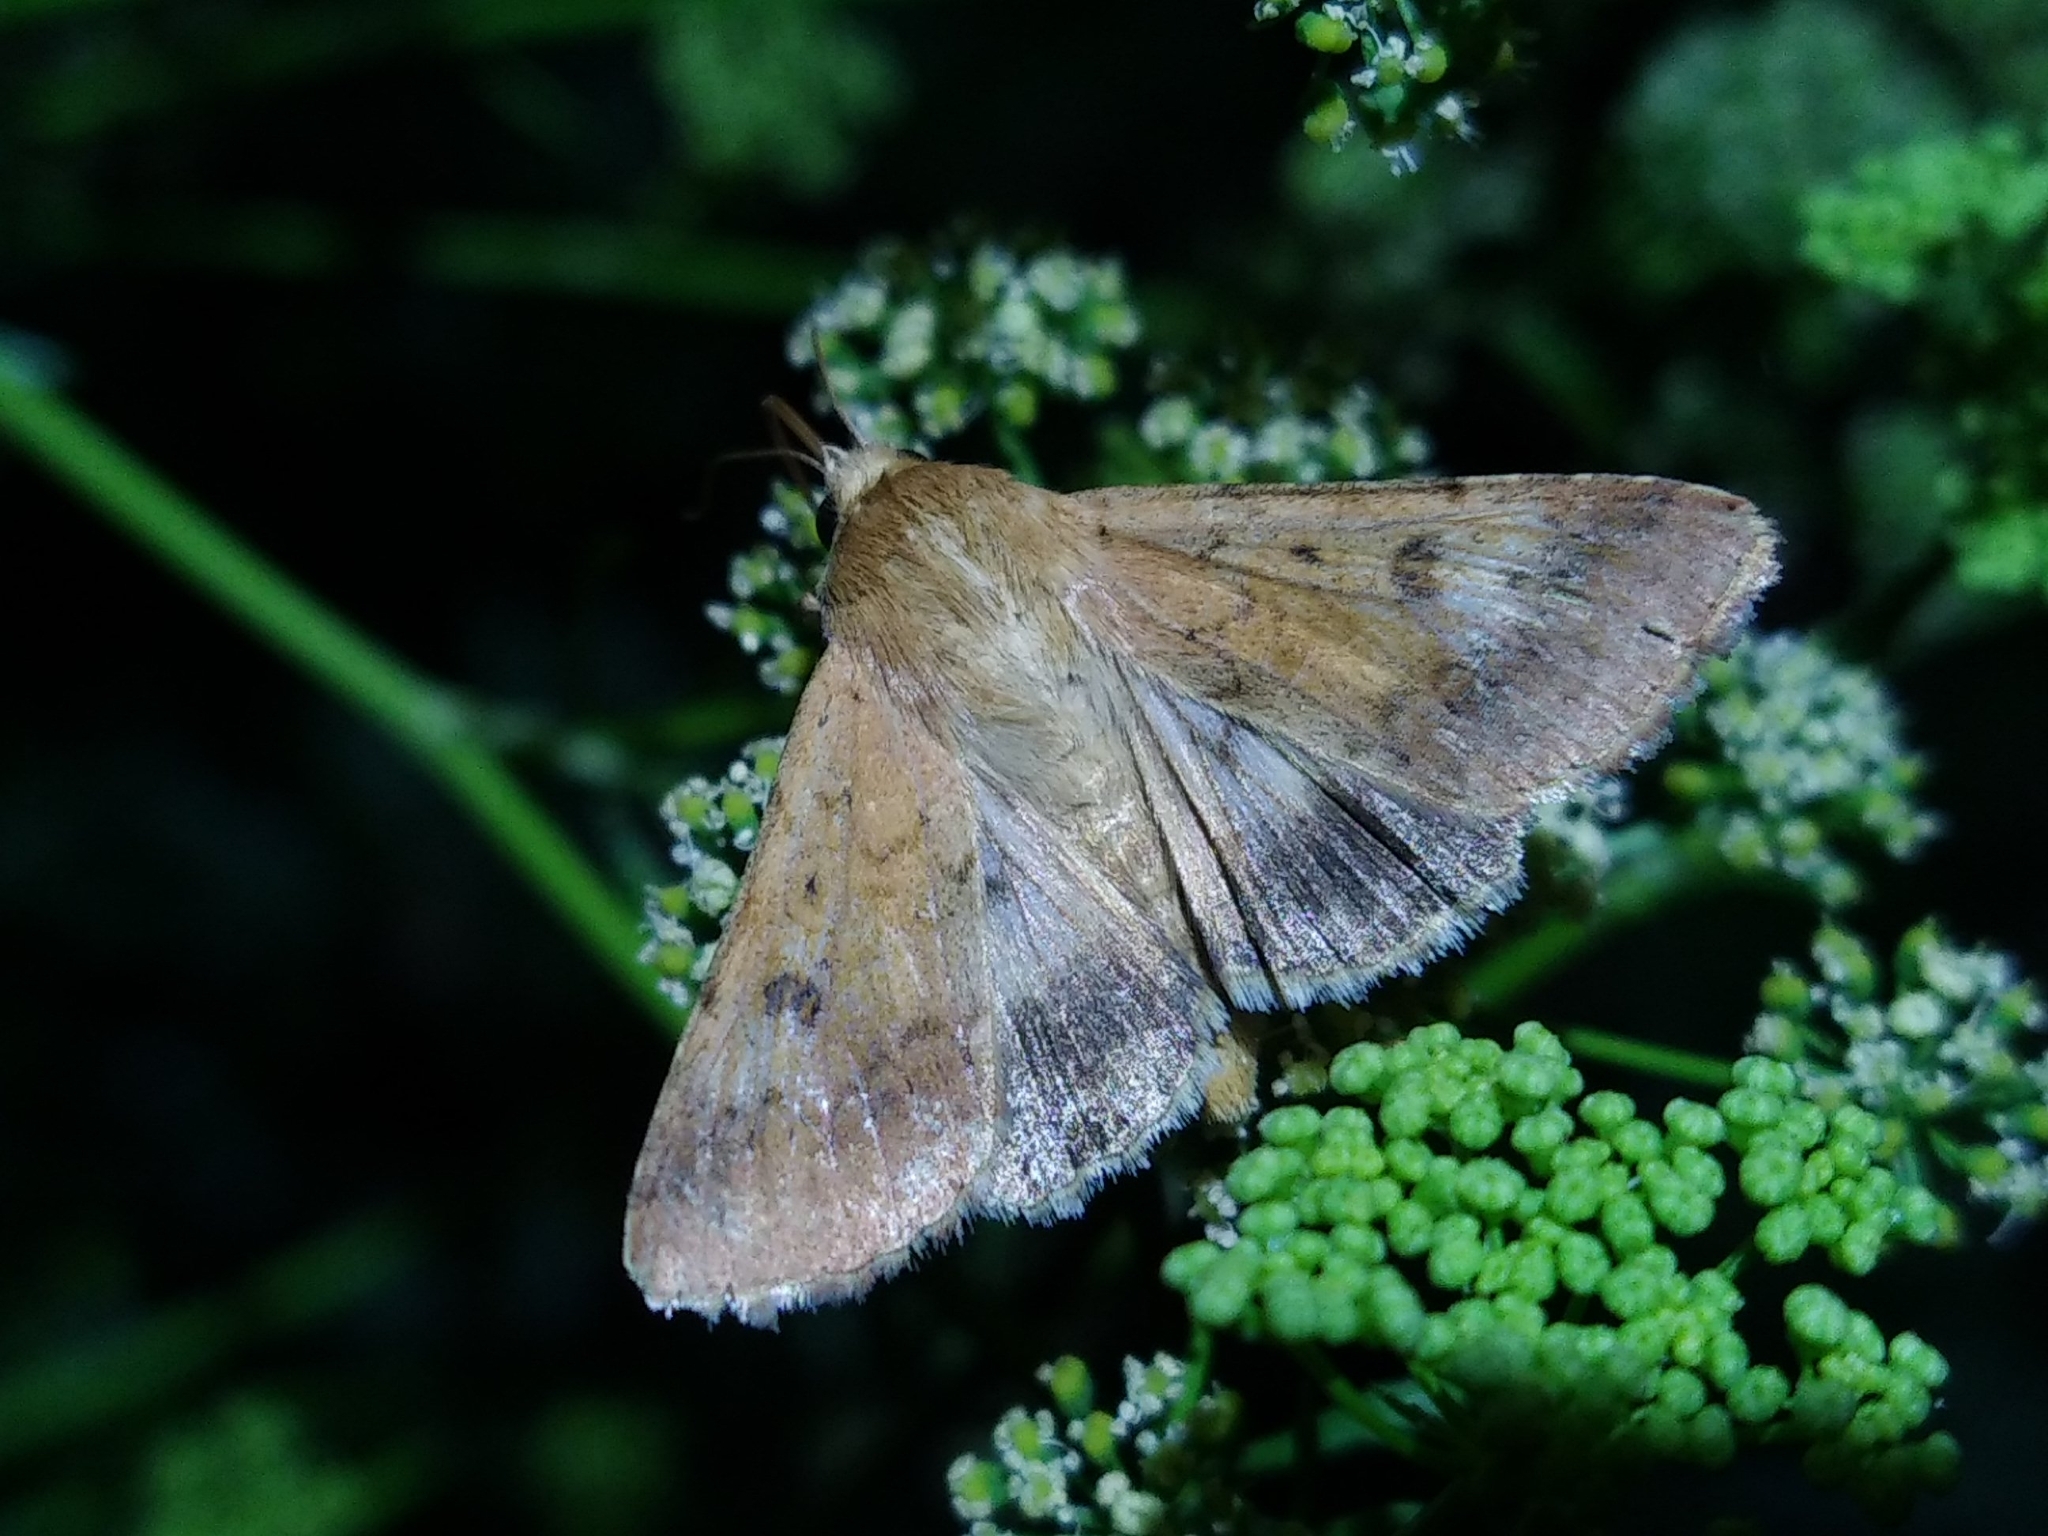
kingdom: Animalia
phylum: Arthropoda
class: Insecta
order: Lepidoptera
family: Noctuidae
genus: Helicoverpa
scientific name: Helicoverpa armigera
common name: Cotton bollworm
